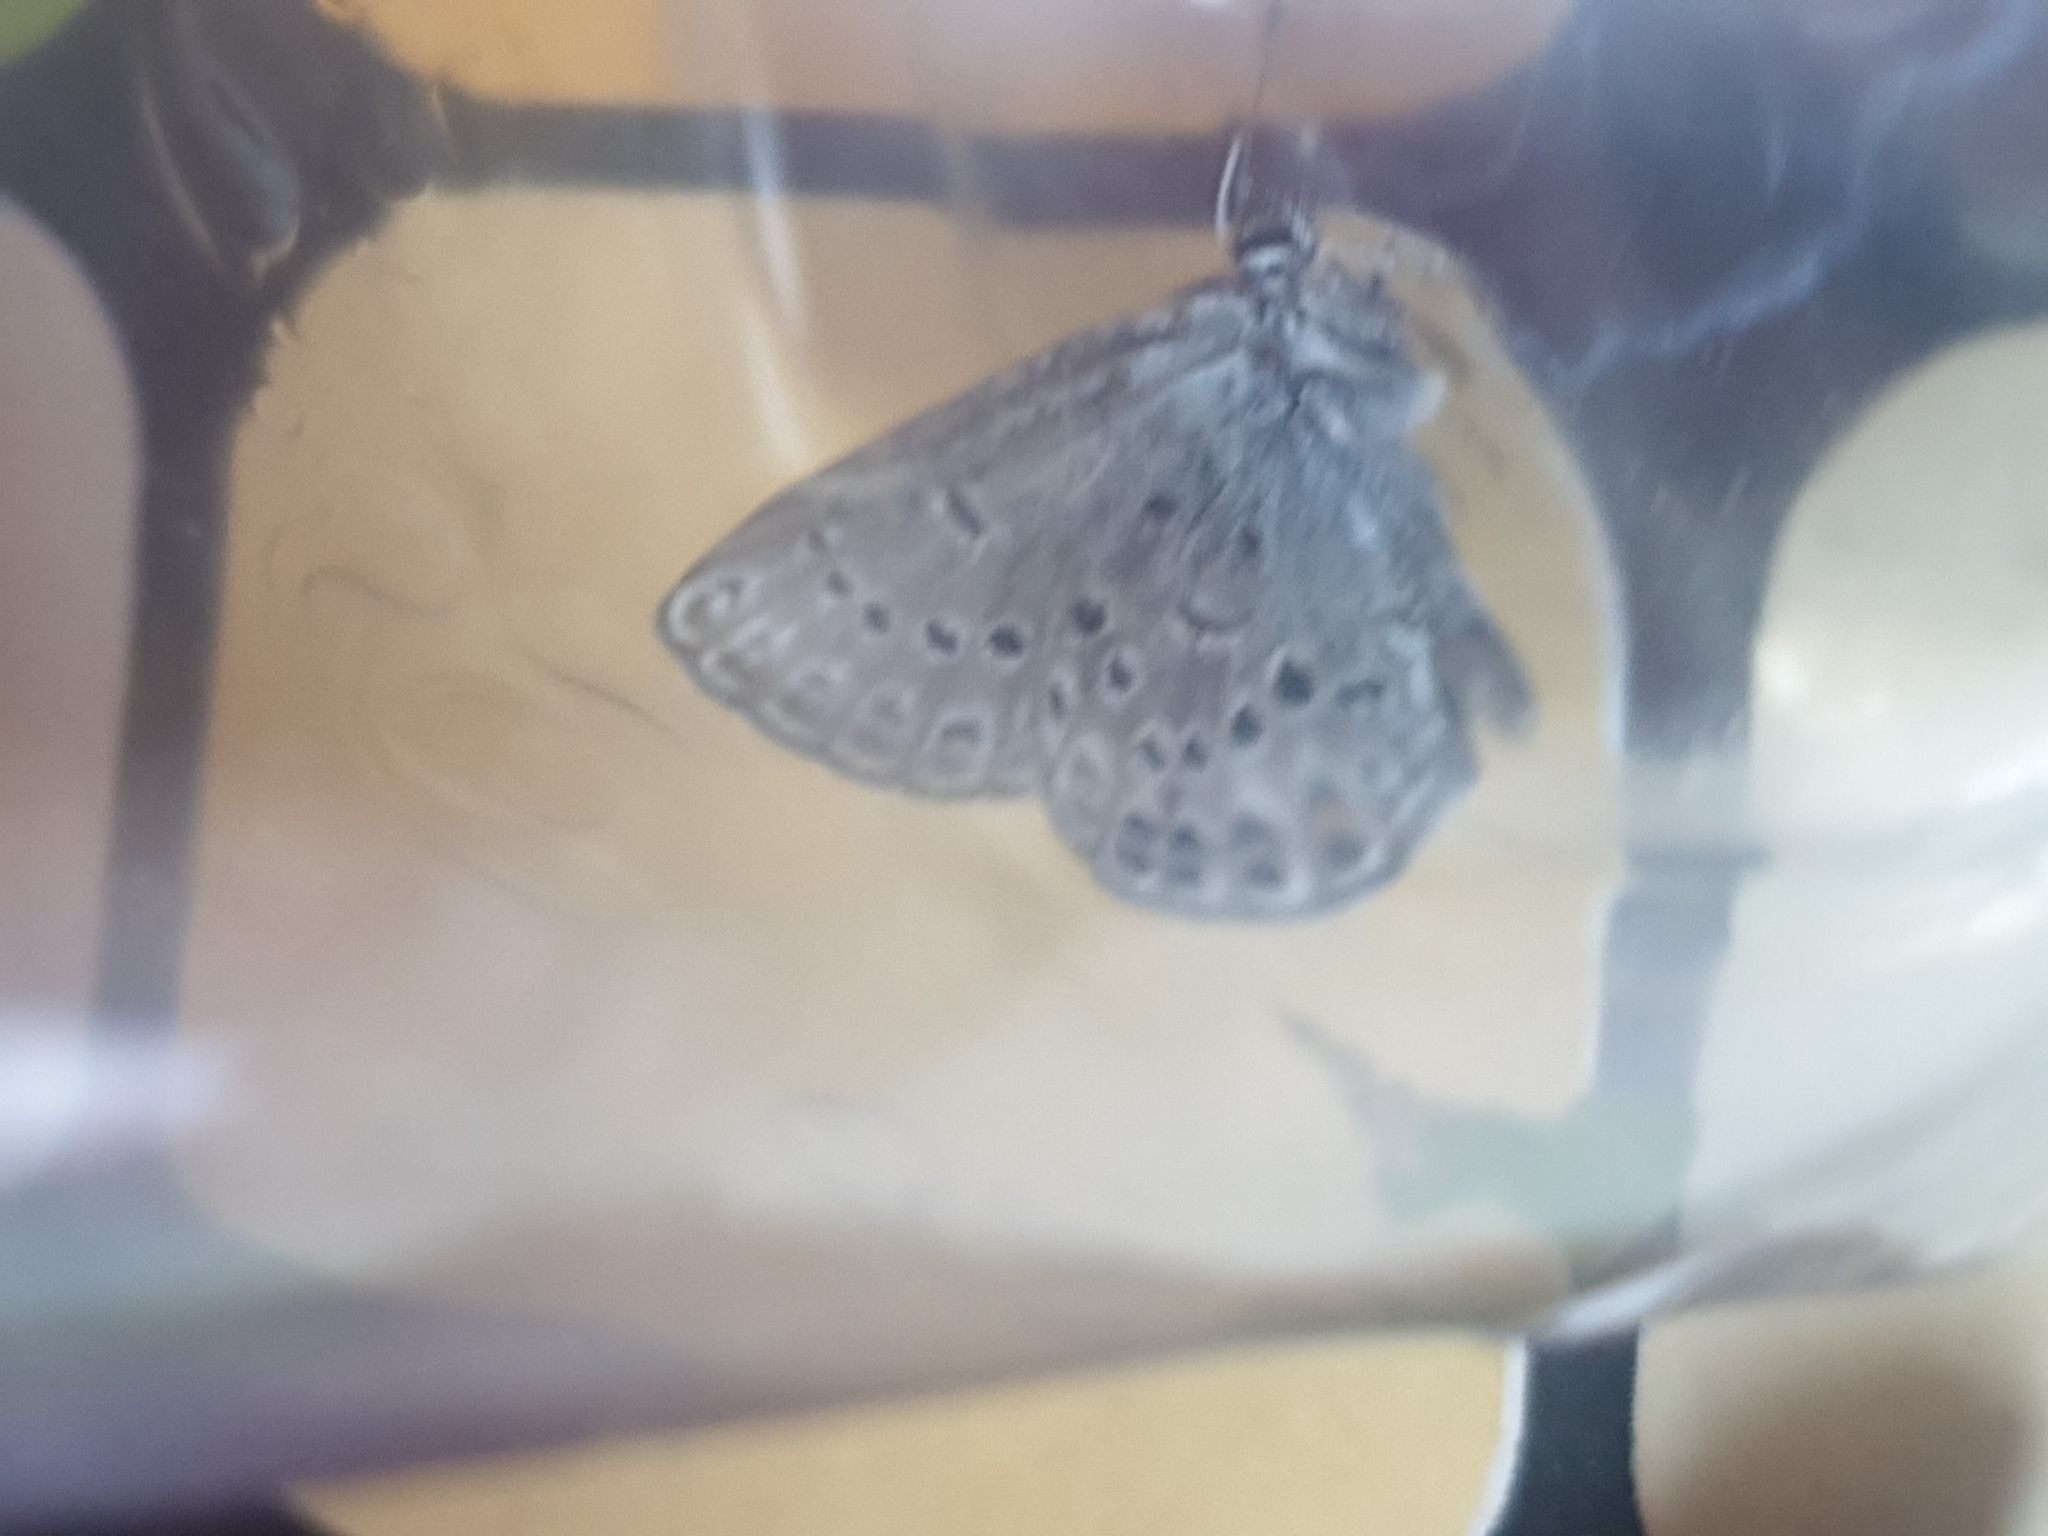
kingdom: Animalia
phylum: Arthropoda
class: Insecta
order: Lepidoptera
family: Lycaenidae
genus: Vacciniina
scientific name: Vacciniina optilete
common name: Cranberry blue
